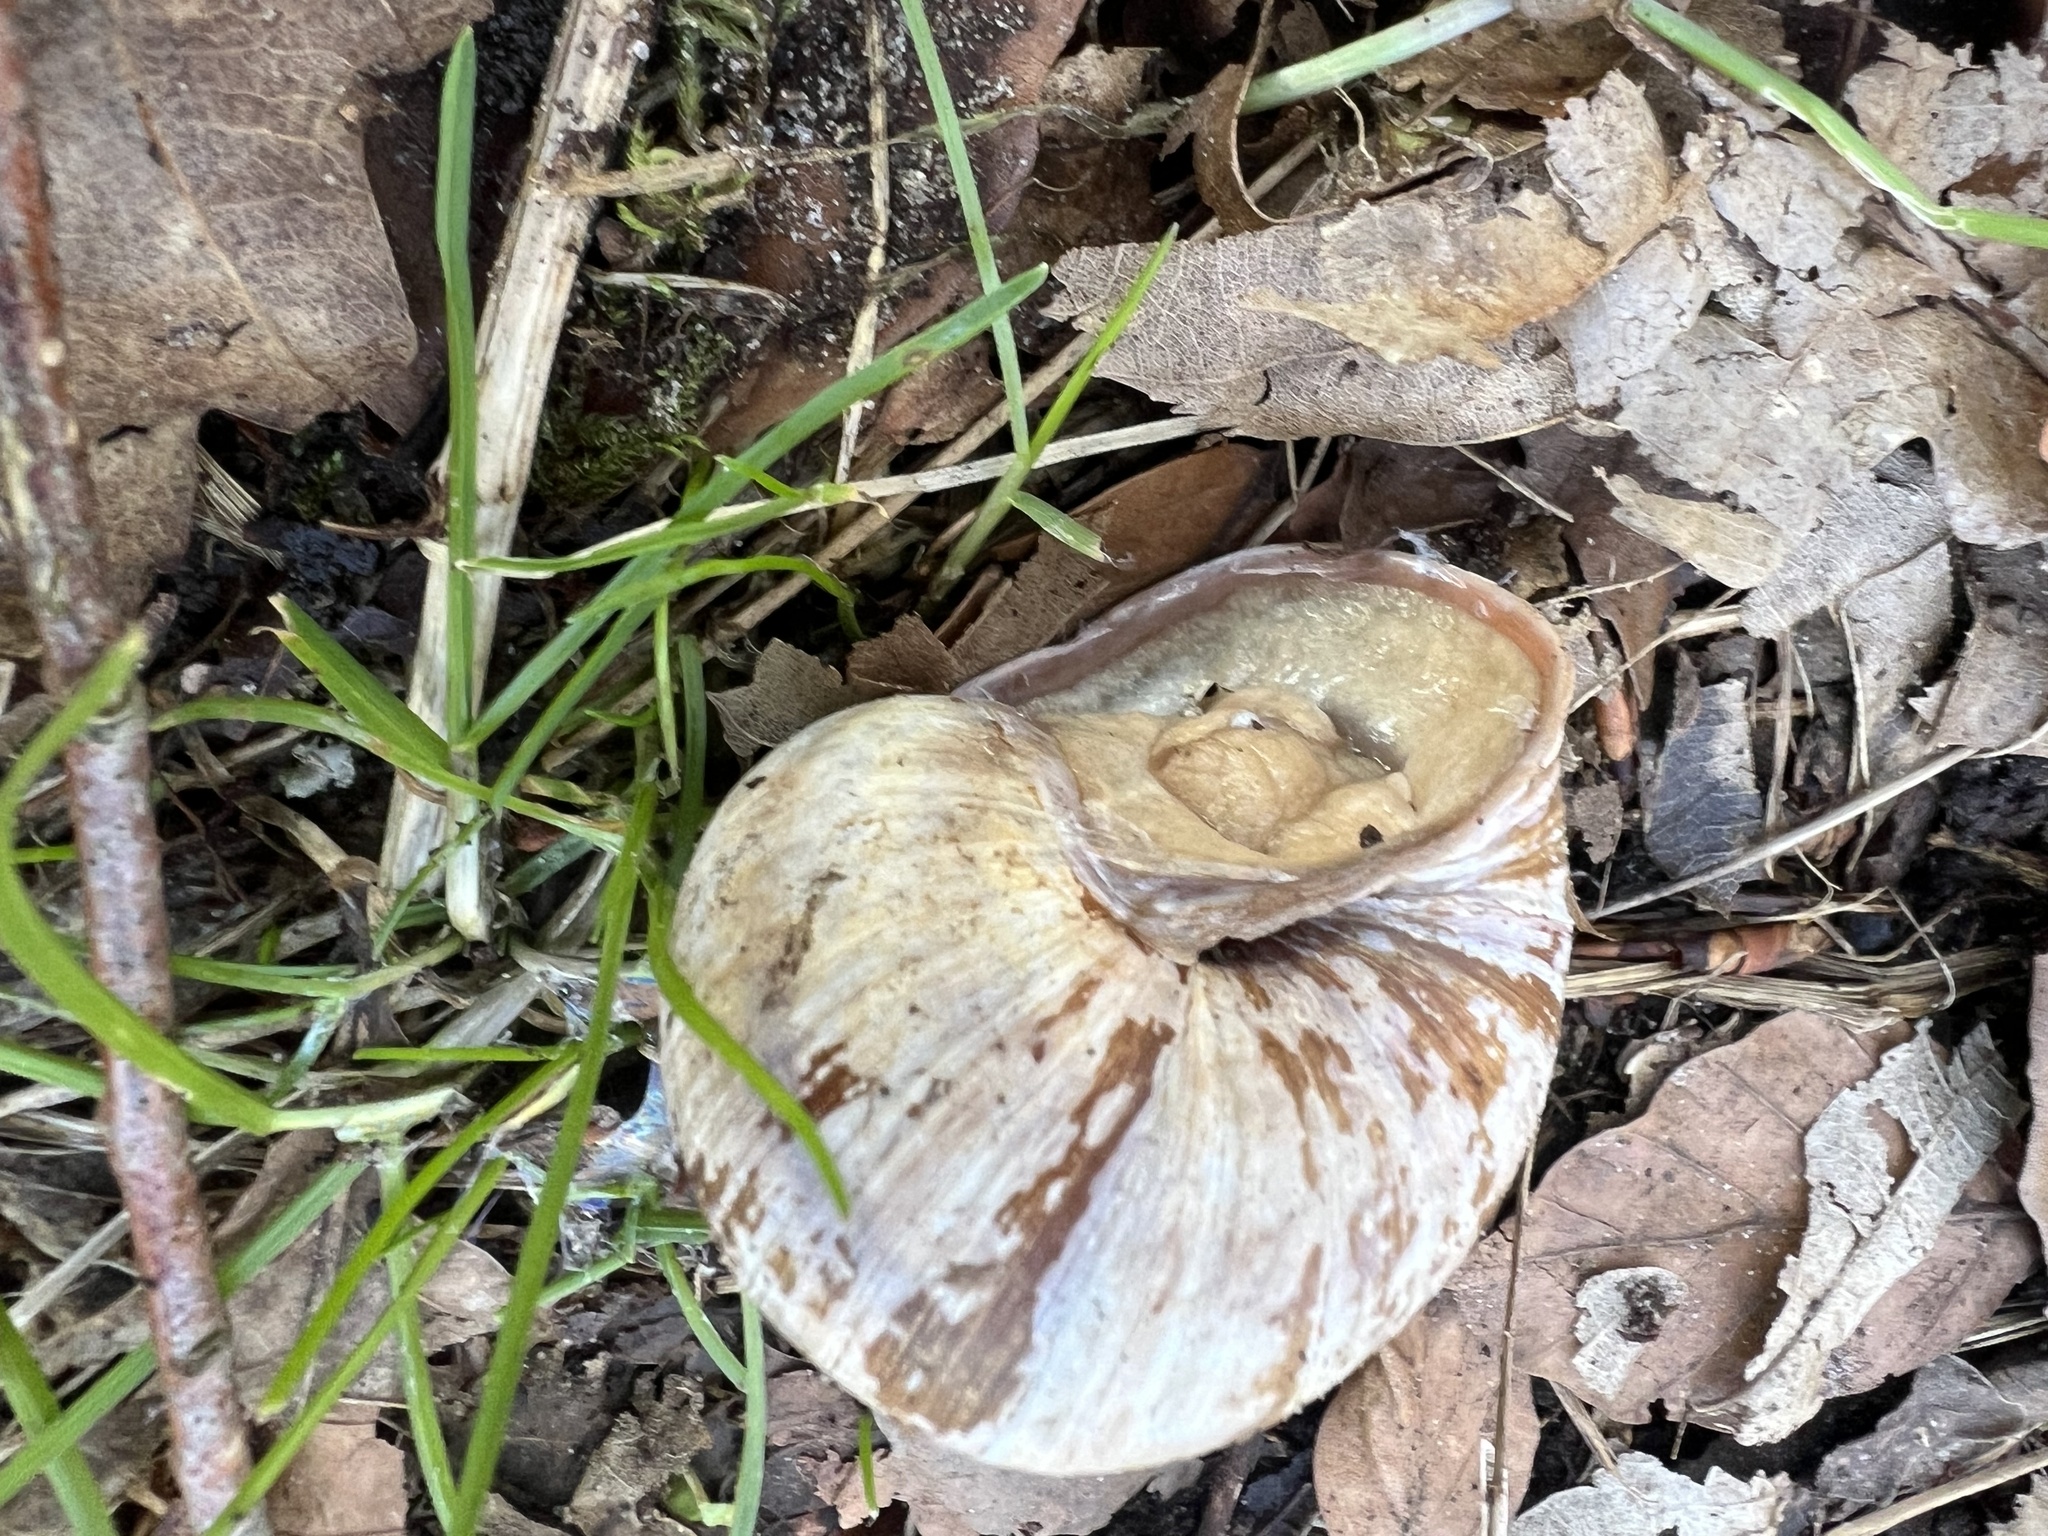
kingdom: Animalia
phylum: Mollusca
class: Gastropoda
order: Stylommatophora
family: Helicidae
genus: Helix
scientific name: Helix pomatia
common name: Roman snail
